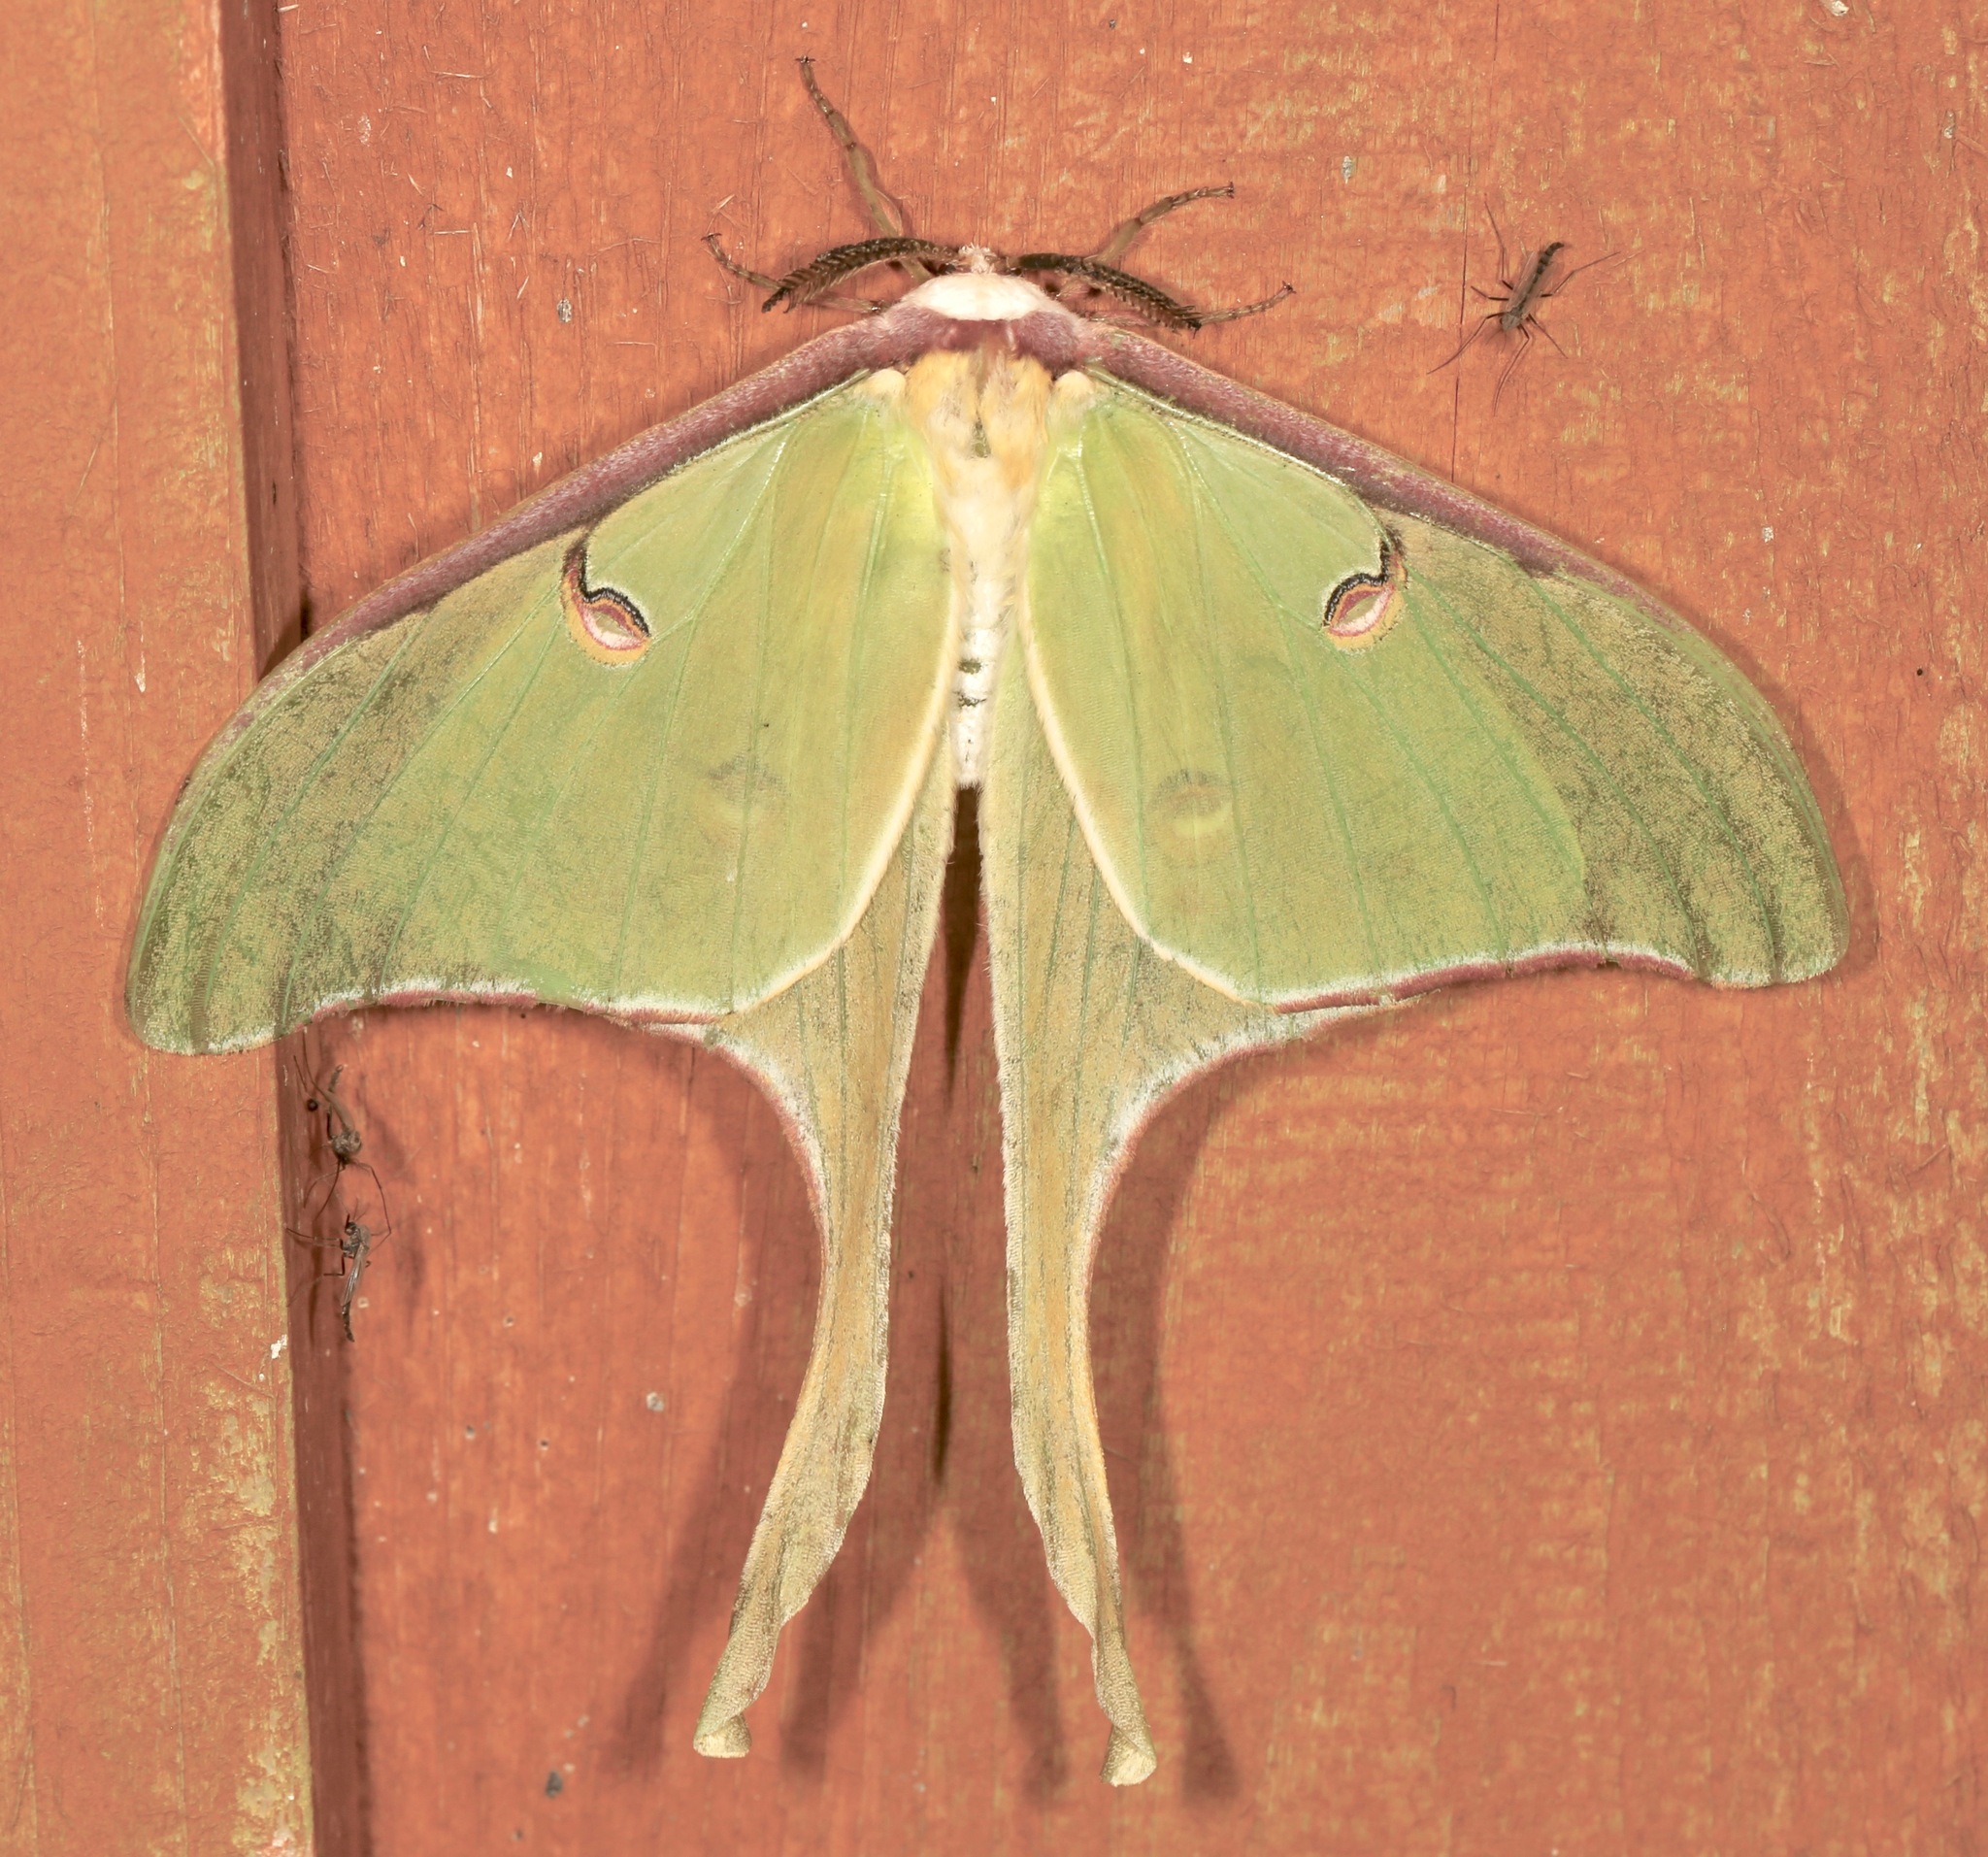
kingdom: Animalia
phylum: Arthropoda
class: Insecta
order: Lepidoptera
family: Saturniidae
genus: Actias
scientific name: Actias luna
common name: Luna moth
